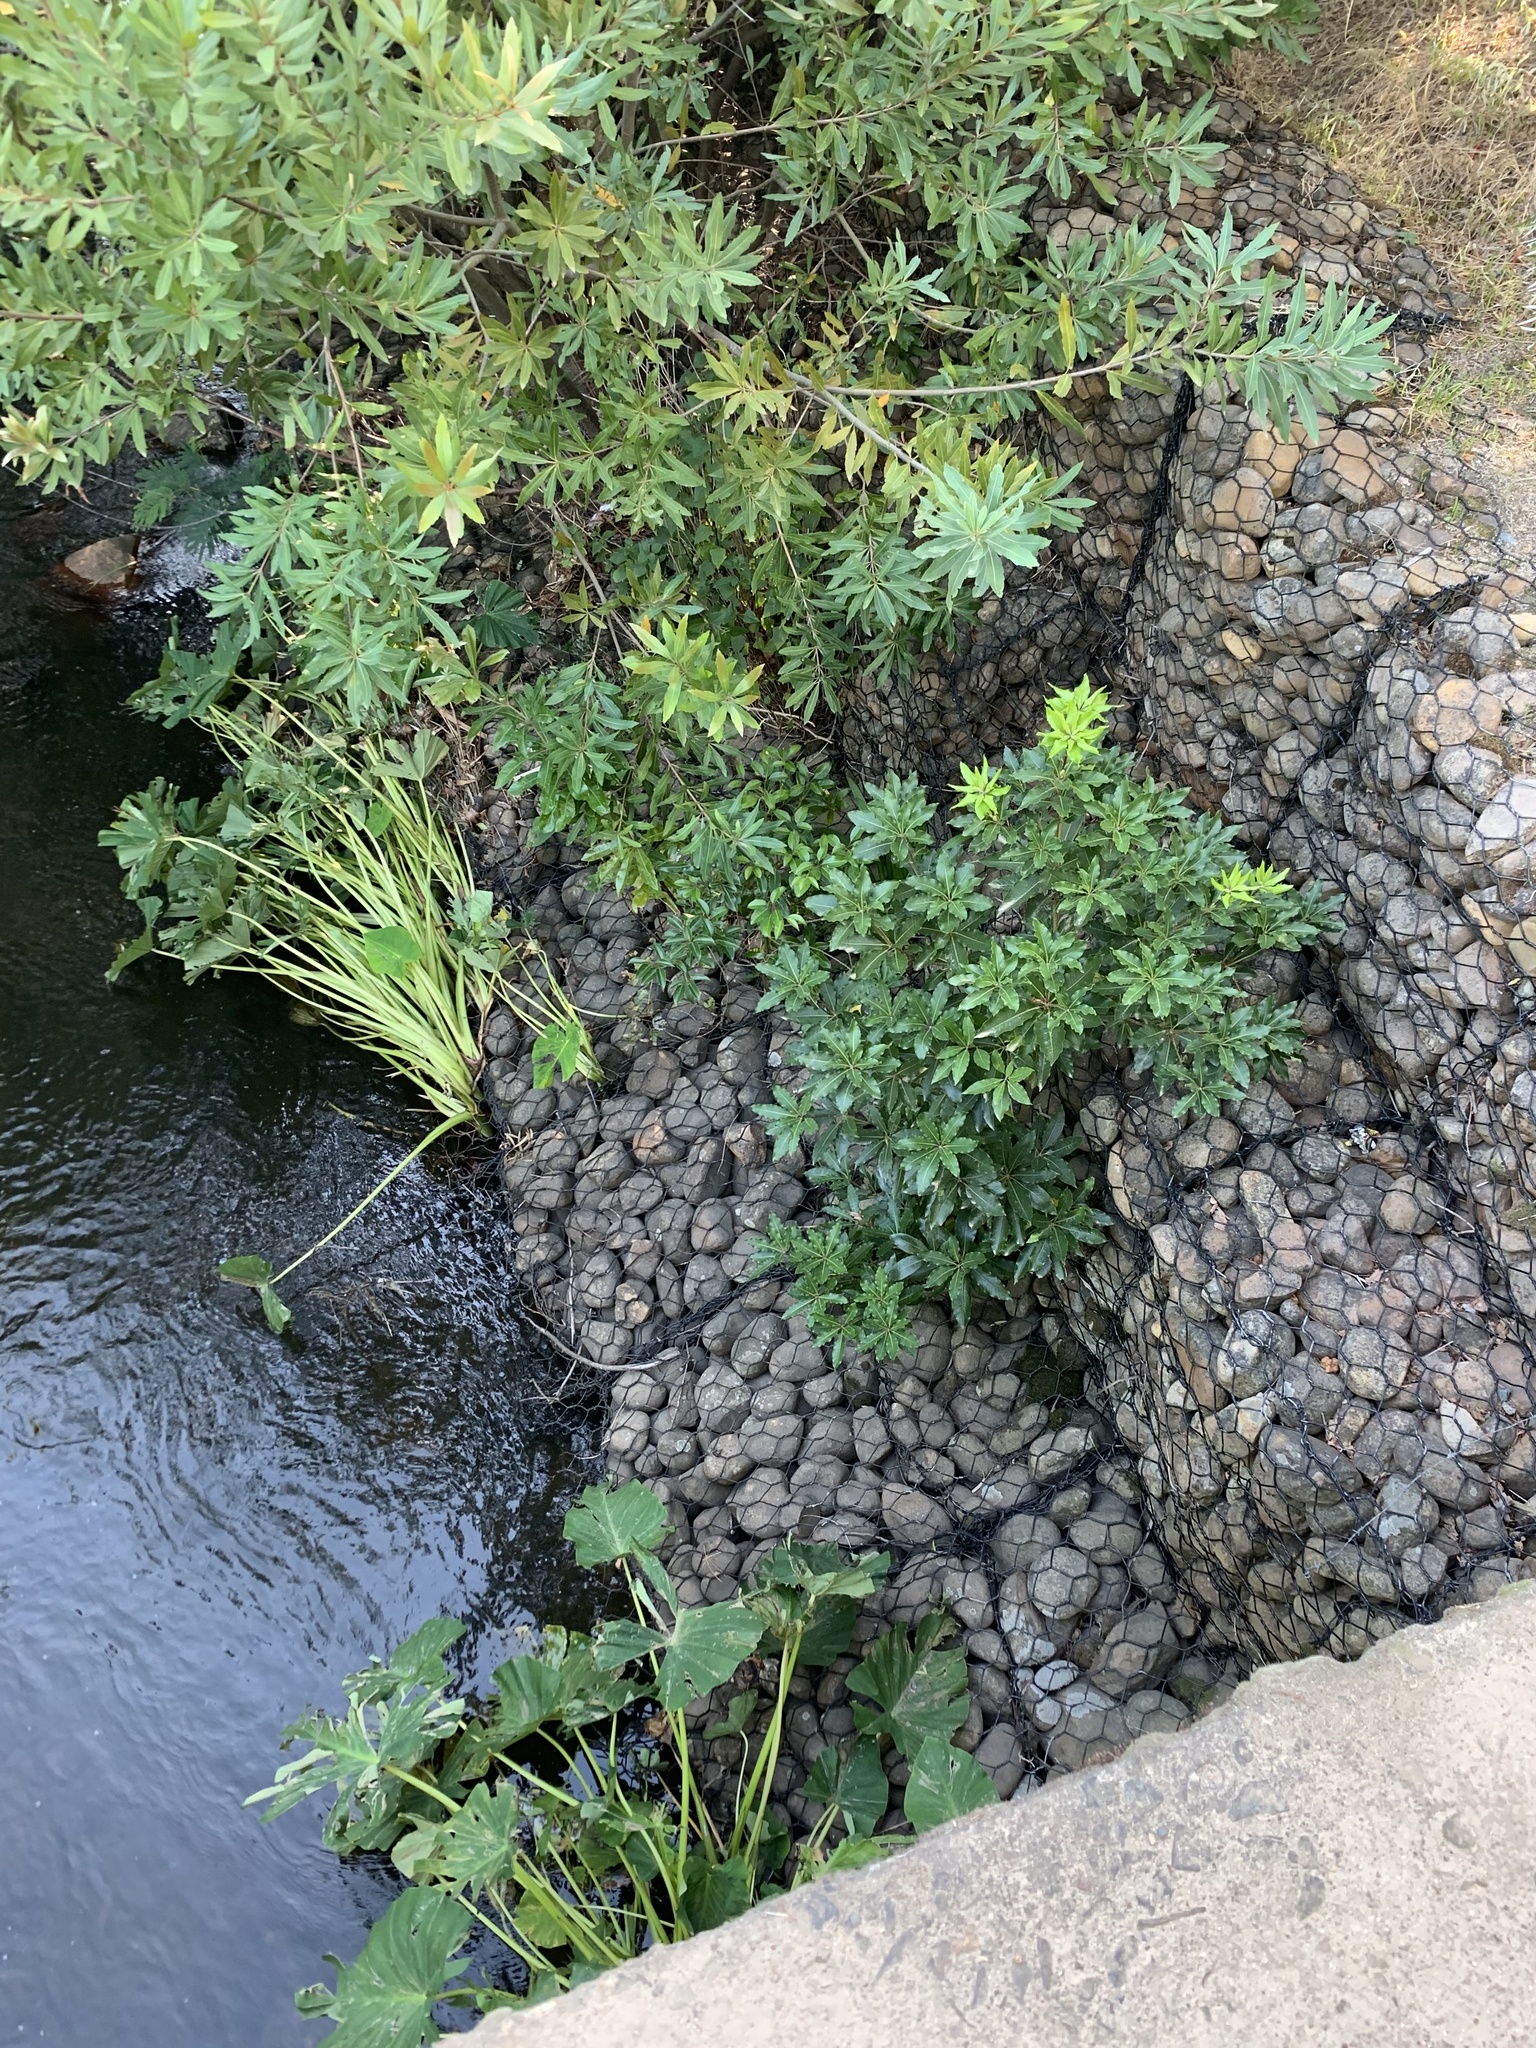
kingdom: Plantae
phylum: Tracheophyta
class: Magnoliopsida
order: Apiales
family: Pittosporaceae
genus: Pittosporum
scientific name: Pittosporum undulatum
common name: Australian cheesewood
